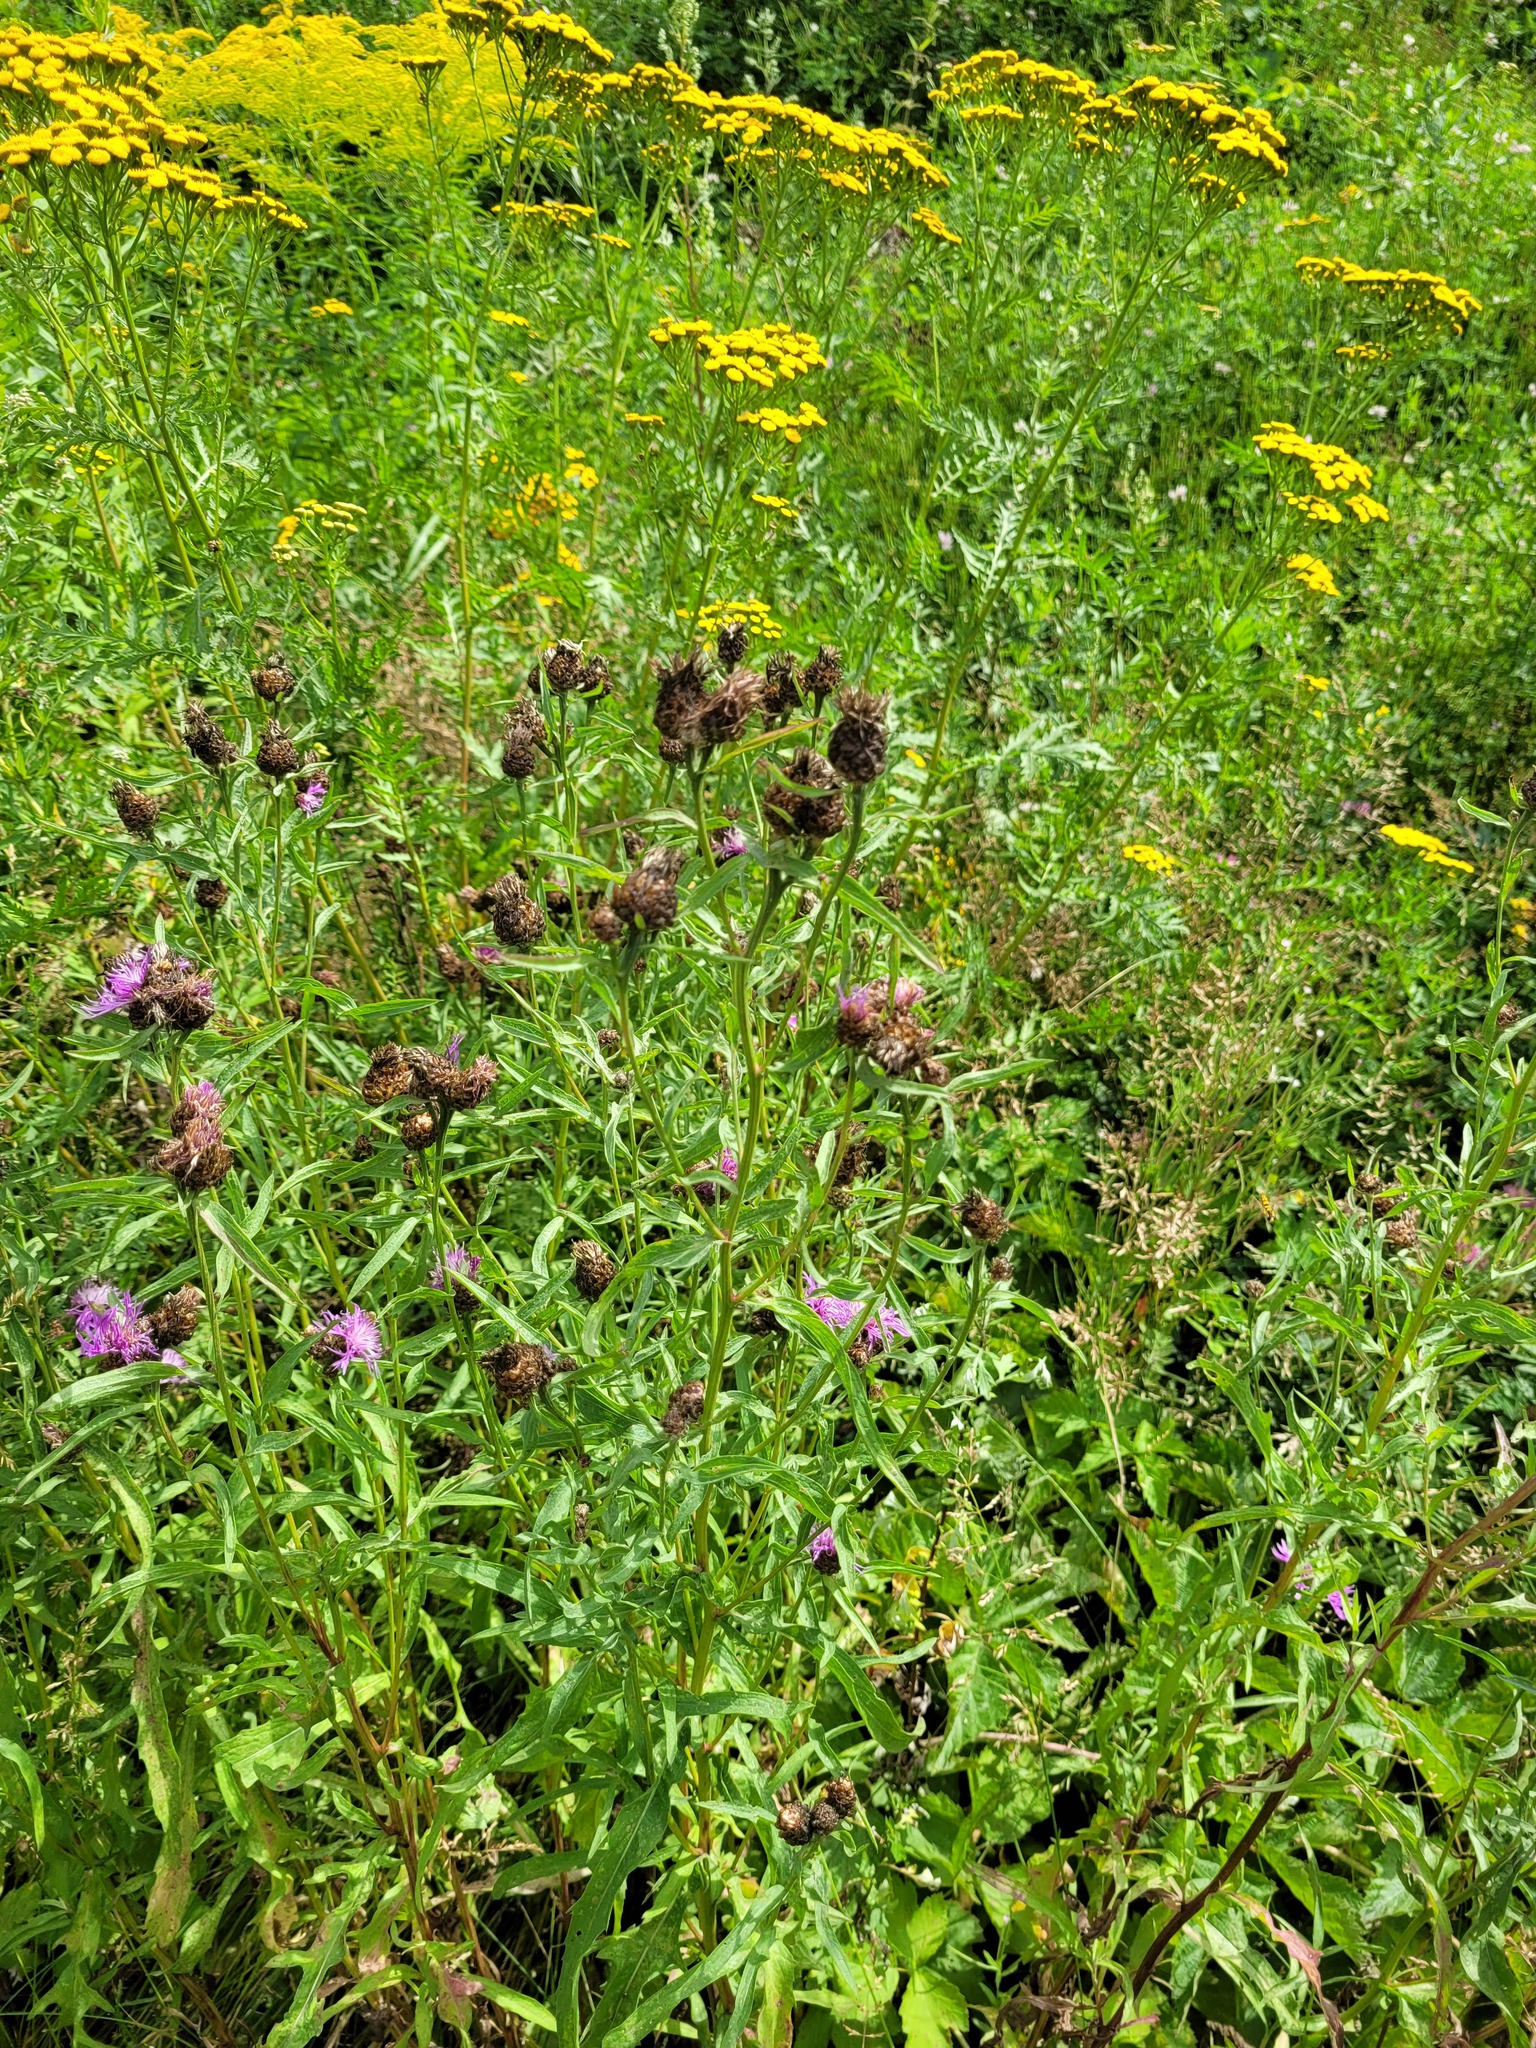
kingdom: Plantae
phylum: Tracheophyta
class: Magnoliopsida
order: Asterales
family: Asteraceae
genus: Centaurea
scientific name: Centaurea jacea
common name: Brown knapweed
